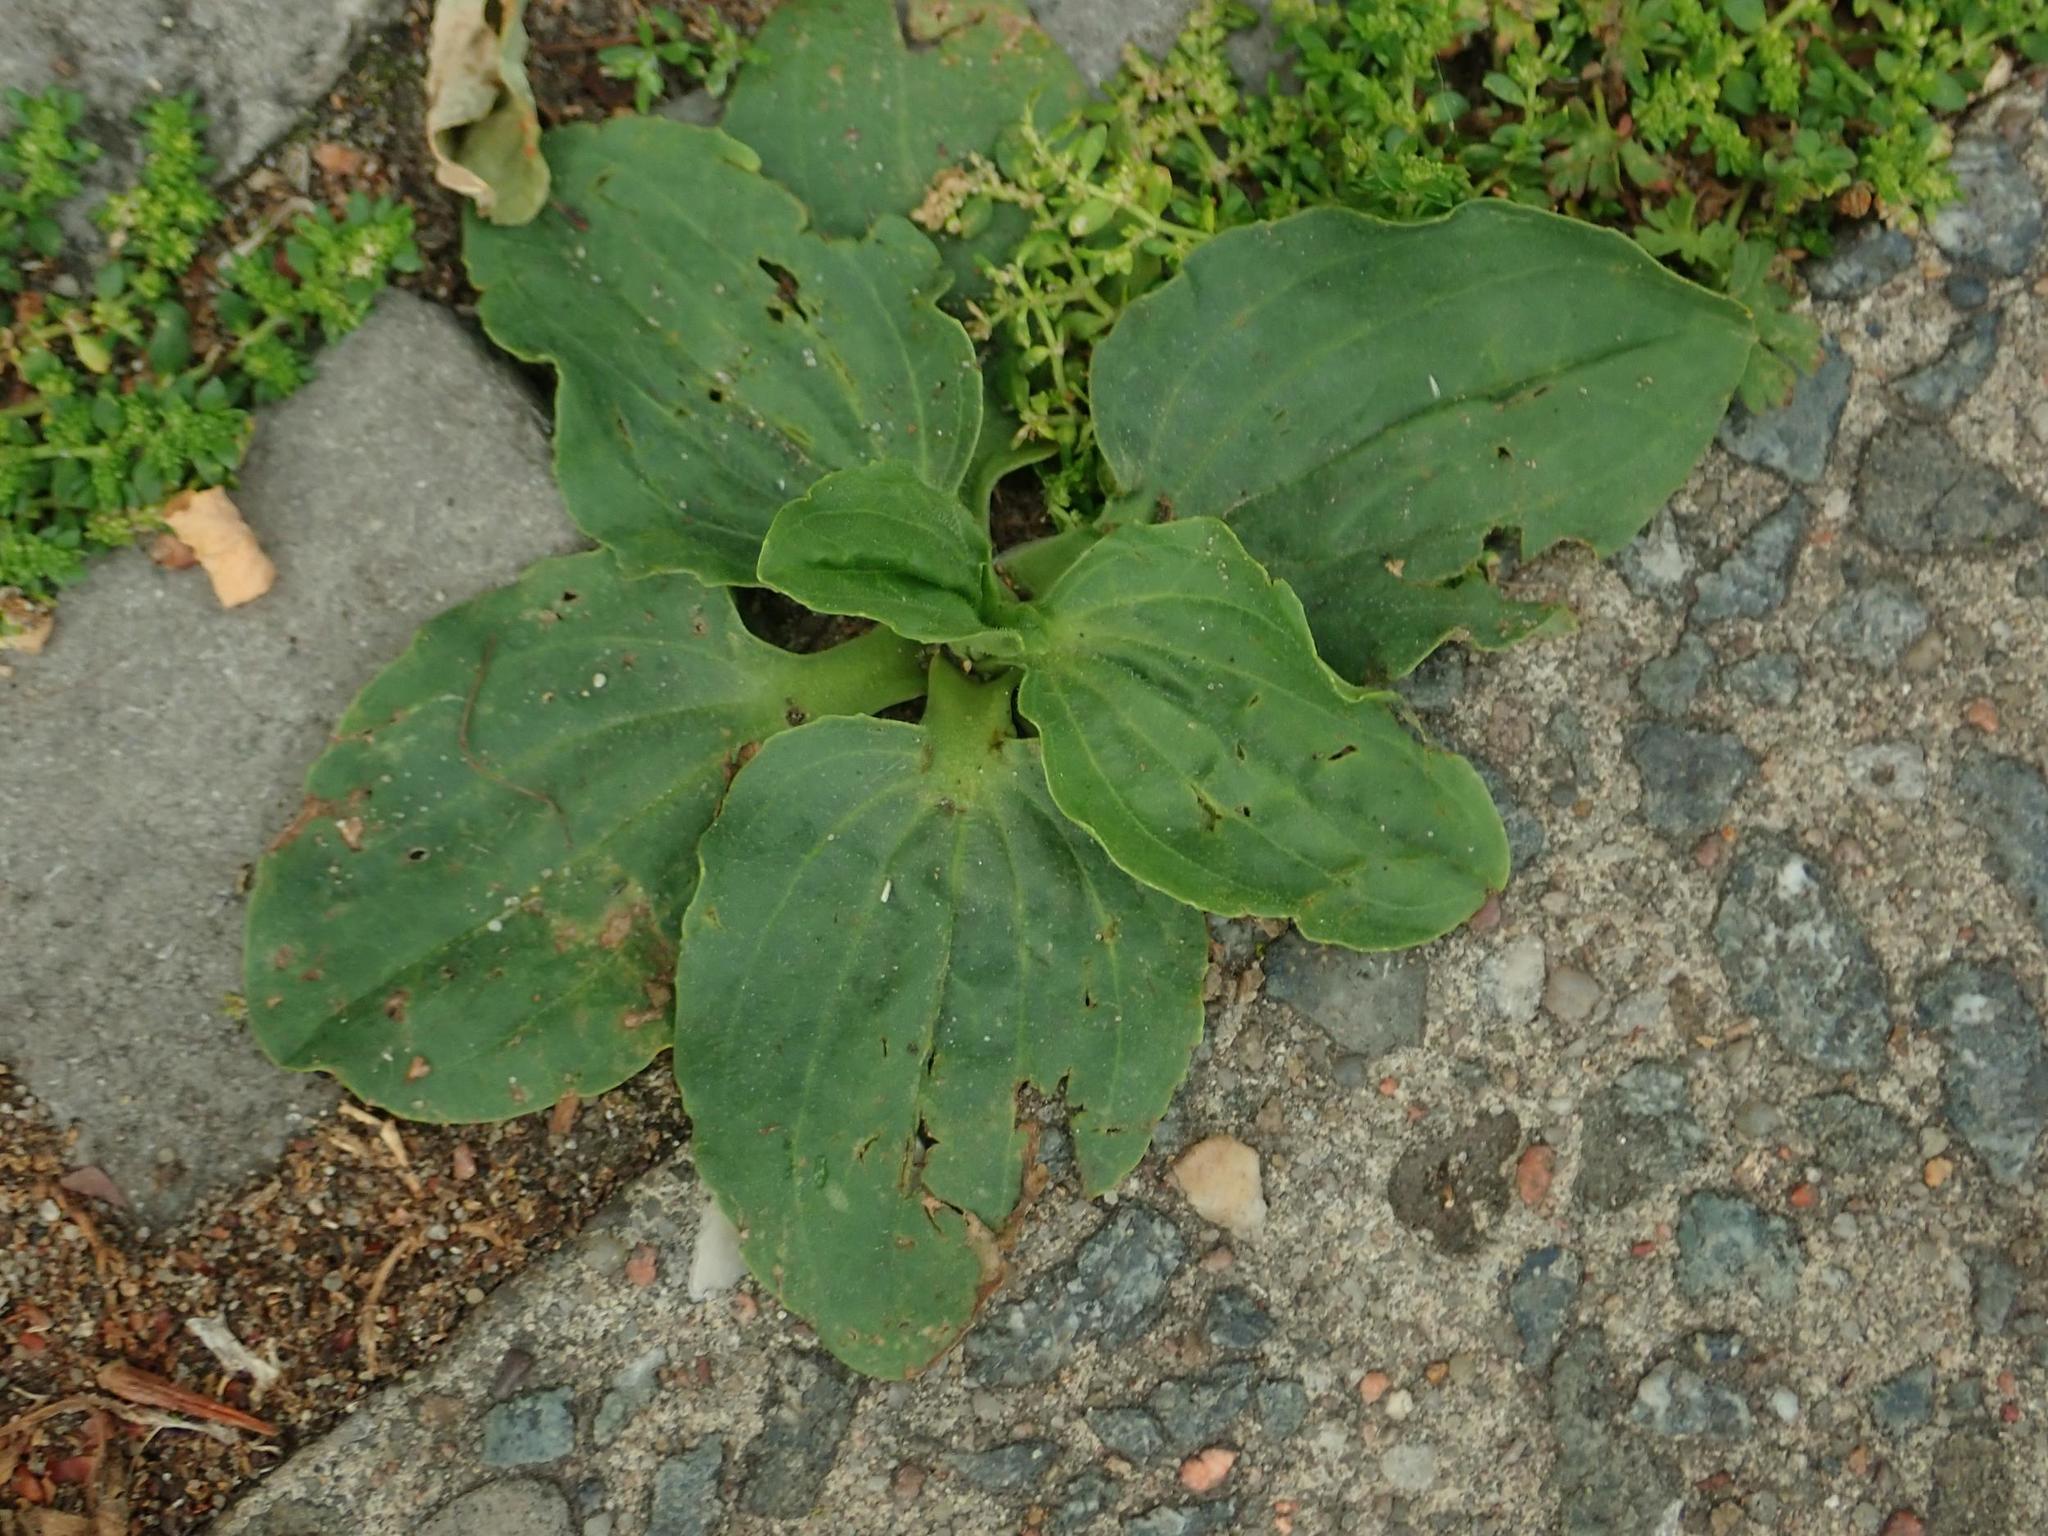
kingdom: Plantae
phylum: Tracheophyta
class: Magnoliopsida
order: Lamiales
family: Plantaginaceae
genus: Plantago
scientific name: Plantago major
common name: Common plantain
